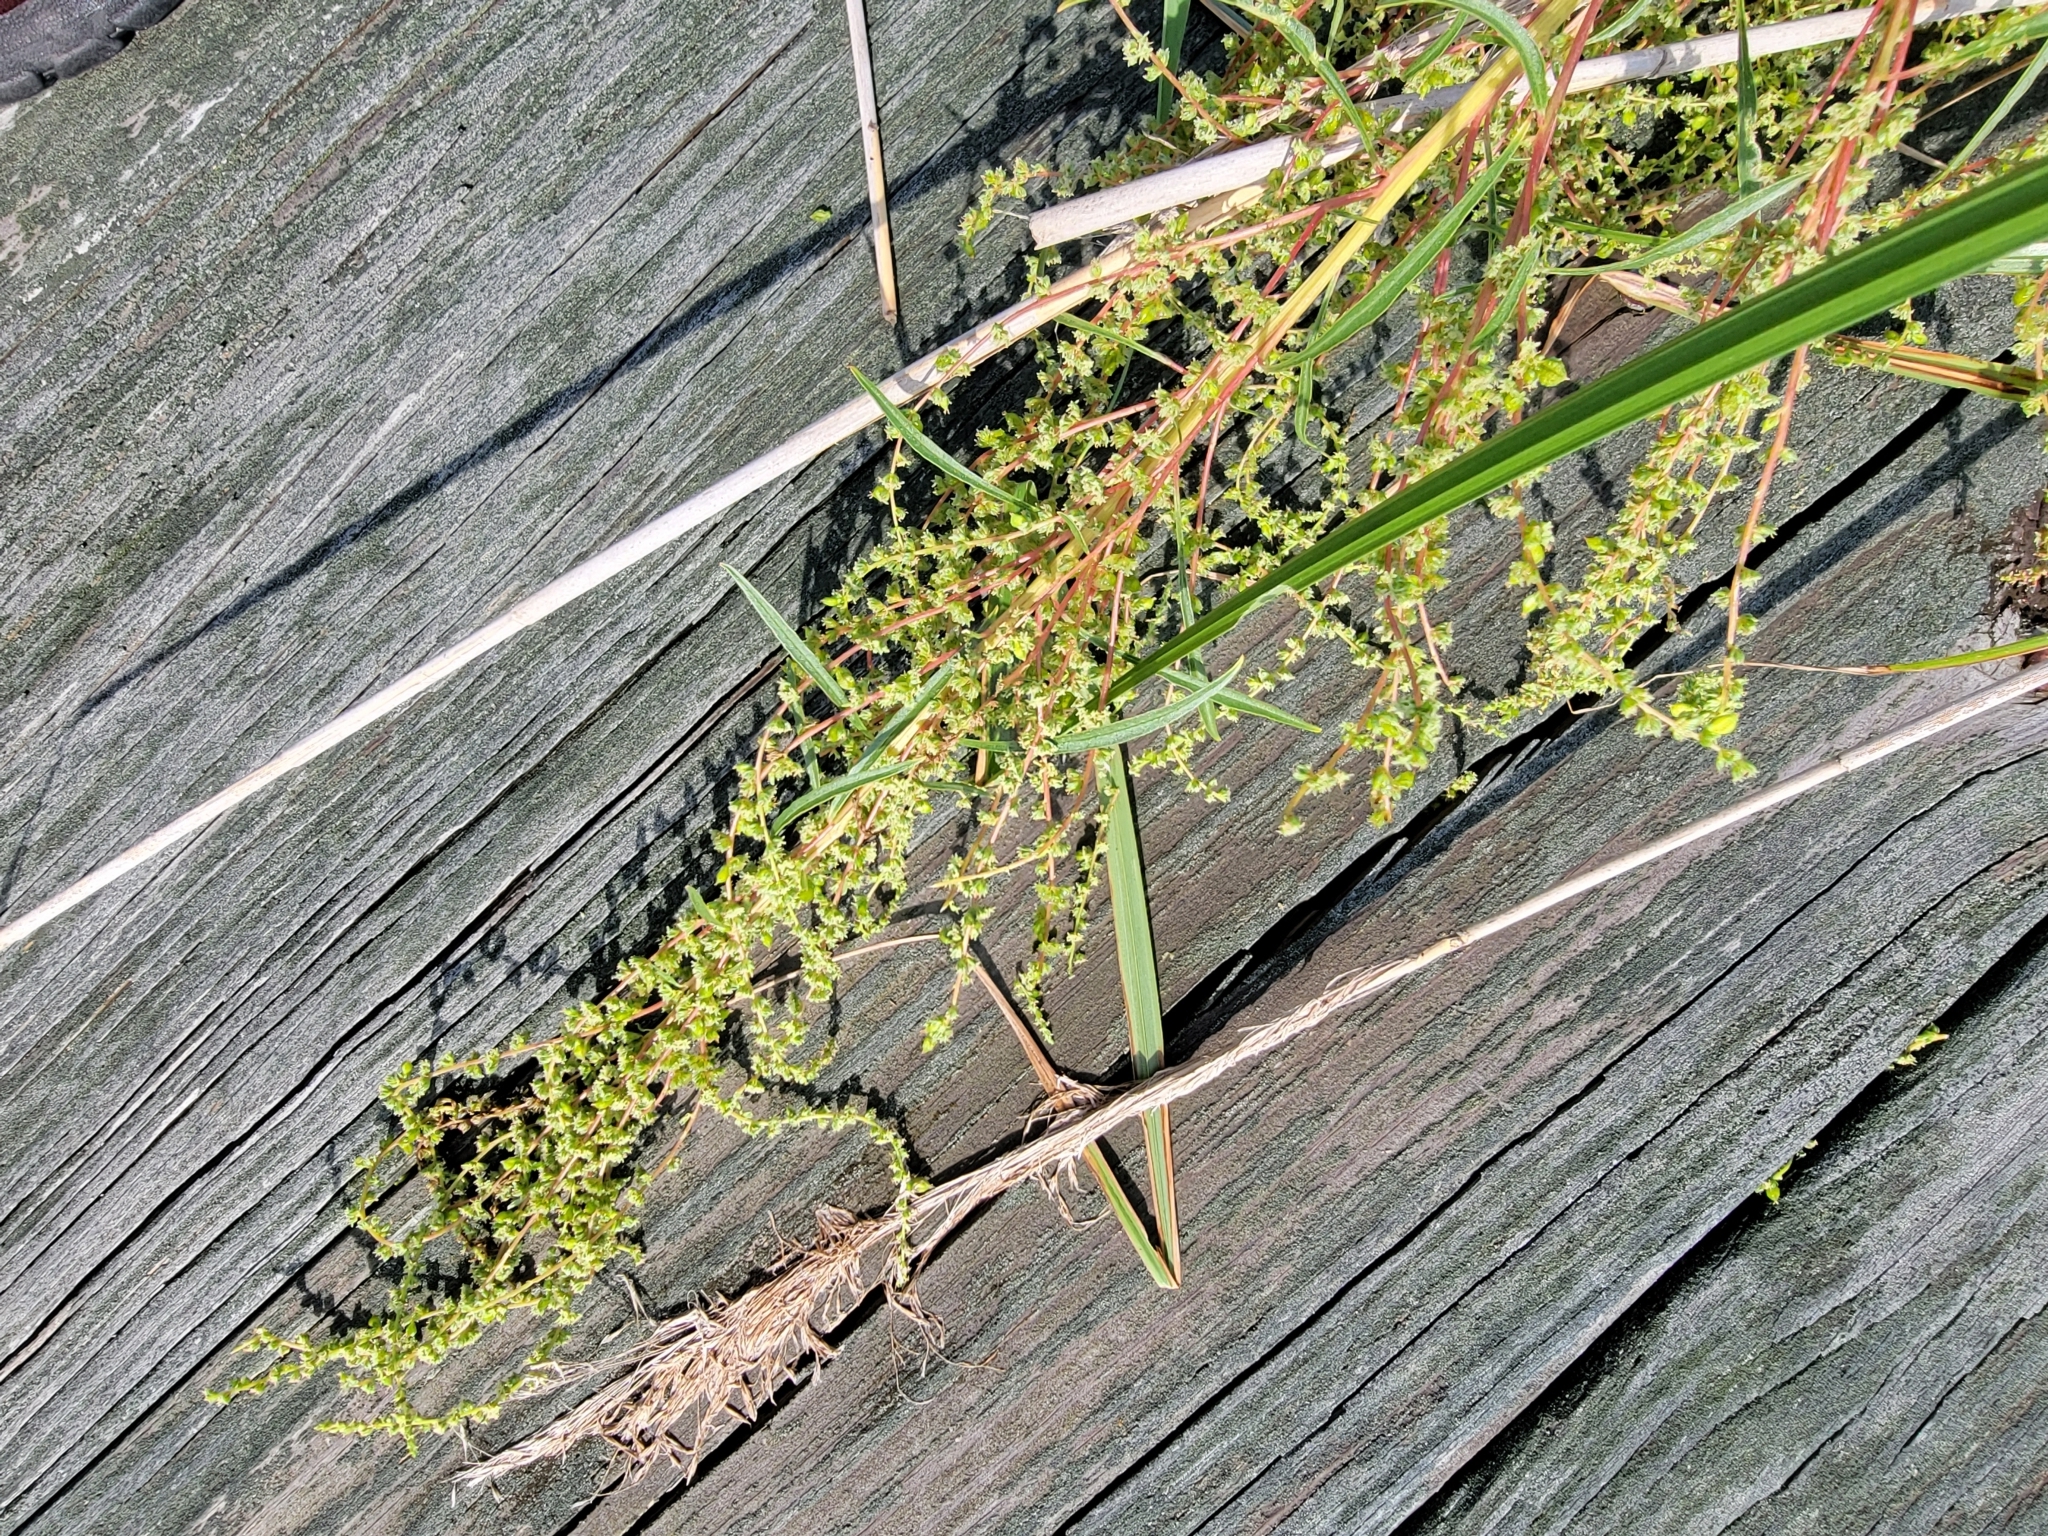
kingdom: Plantae
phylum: Tracheophyta
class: Magnoliopsida
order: Caryophyllales
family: Amaranthaceae
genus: Amaranthus
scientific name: Amaranthus cannabinus
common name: Salt-marsh water-hemp
